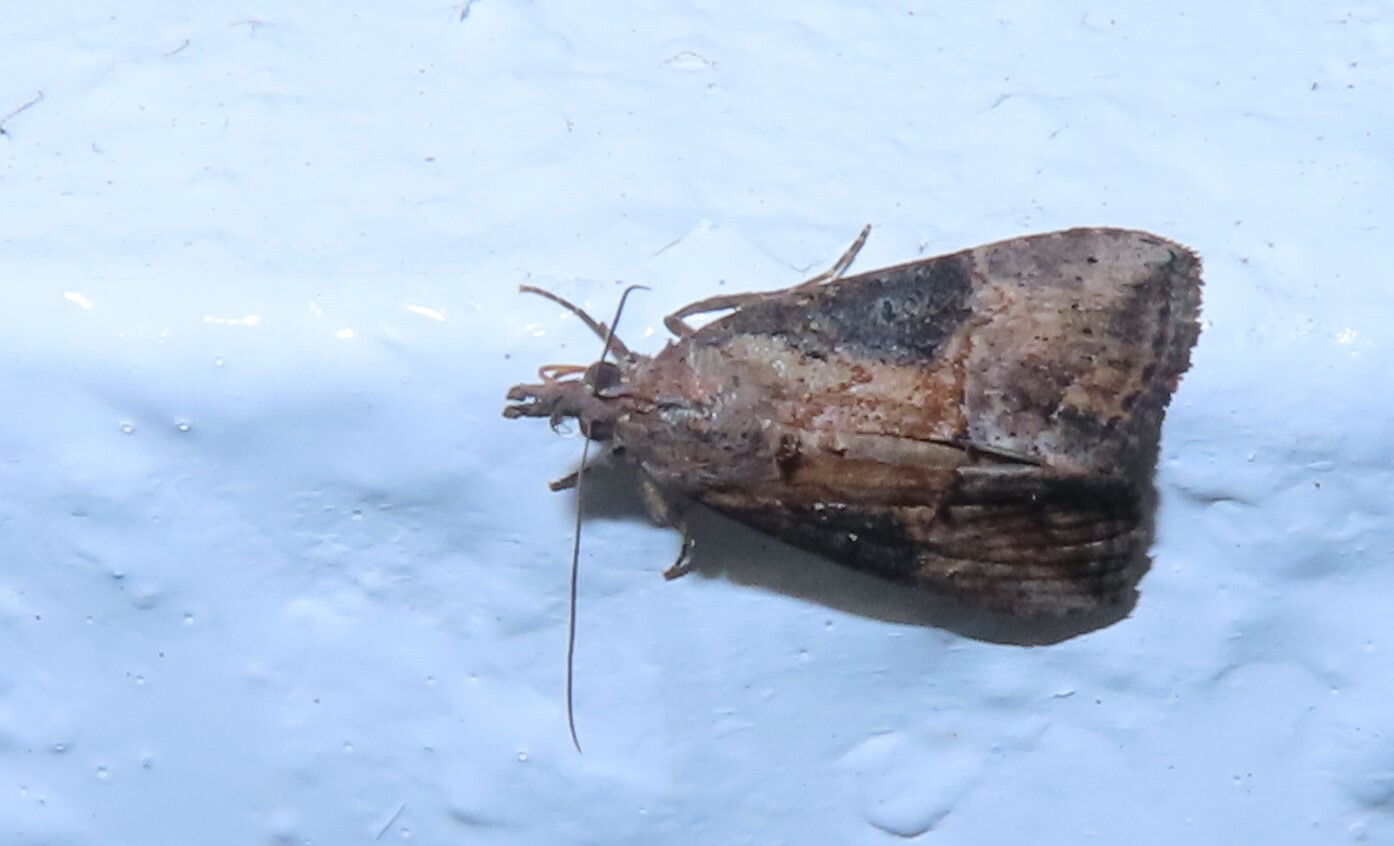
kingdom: Animalia
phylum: Arthropoda
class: Insecta
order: Lepidoptera
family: Erebidae
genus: Hypena
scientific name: Hypena scabra
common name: Green cloverworm
